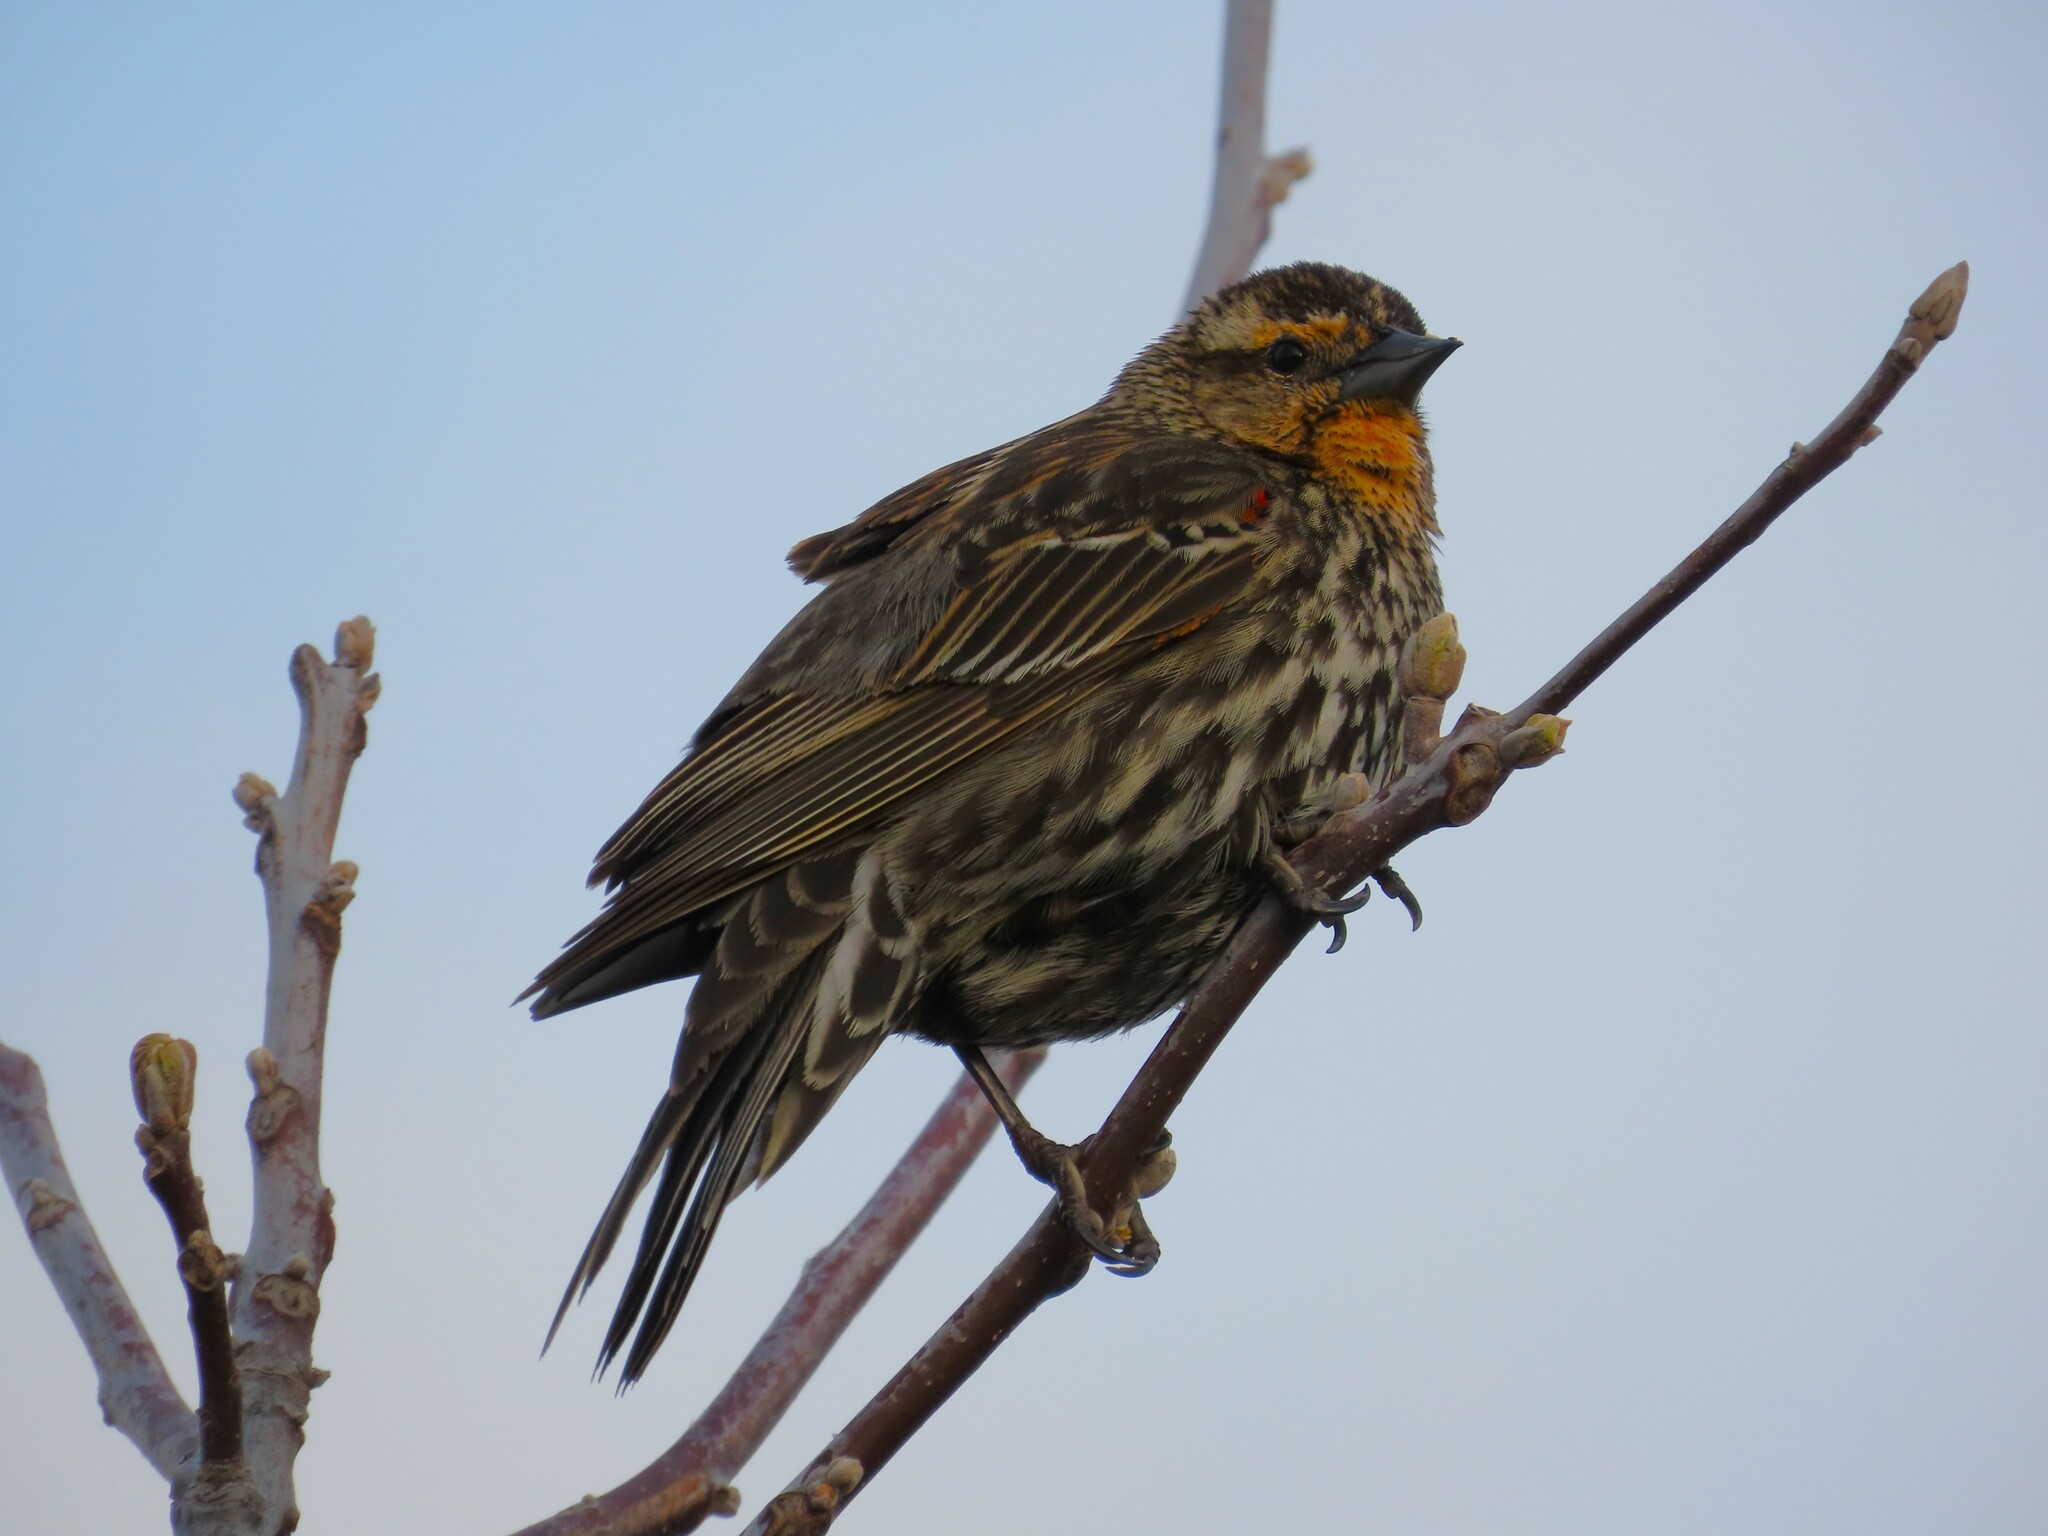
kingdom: Animalia
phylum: Chordata
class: Aves
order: Passeriformes
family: Icteridae
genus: Agelaius
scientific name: Agelaius phoeniceus
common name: Red-winged blackbird
